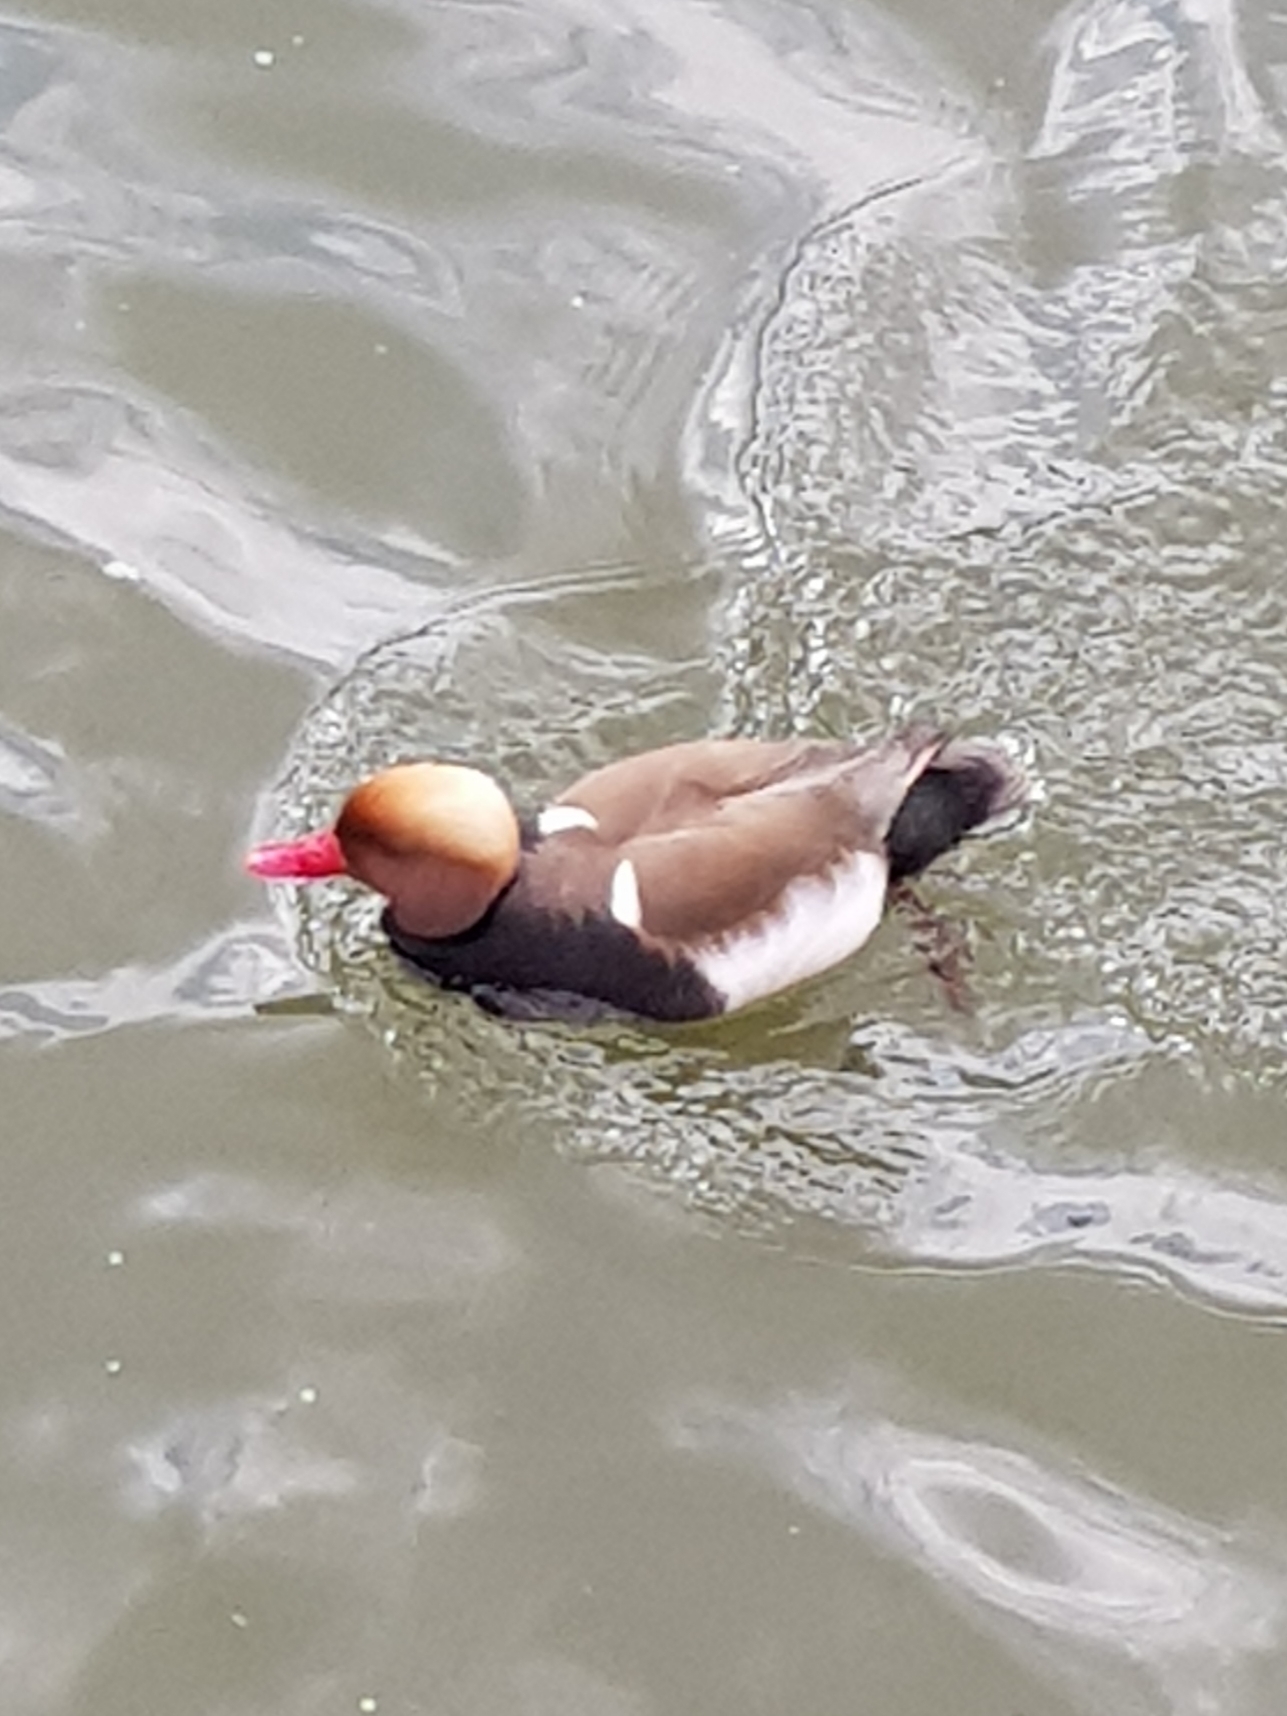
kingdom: Animalia
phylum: Chordata
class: Aves
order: Anseriformes
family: Anatidae
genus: Netta
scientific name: Netta rufina
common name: Red-crested pochard
